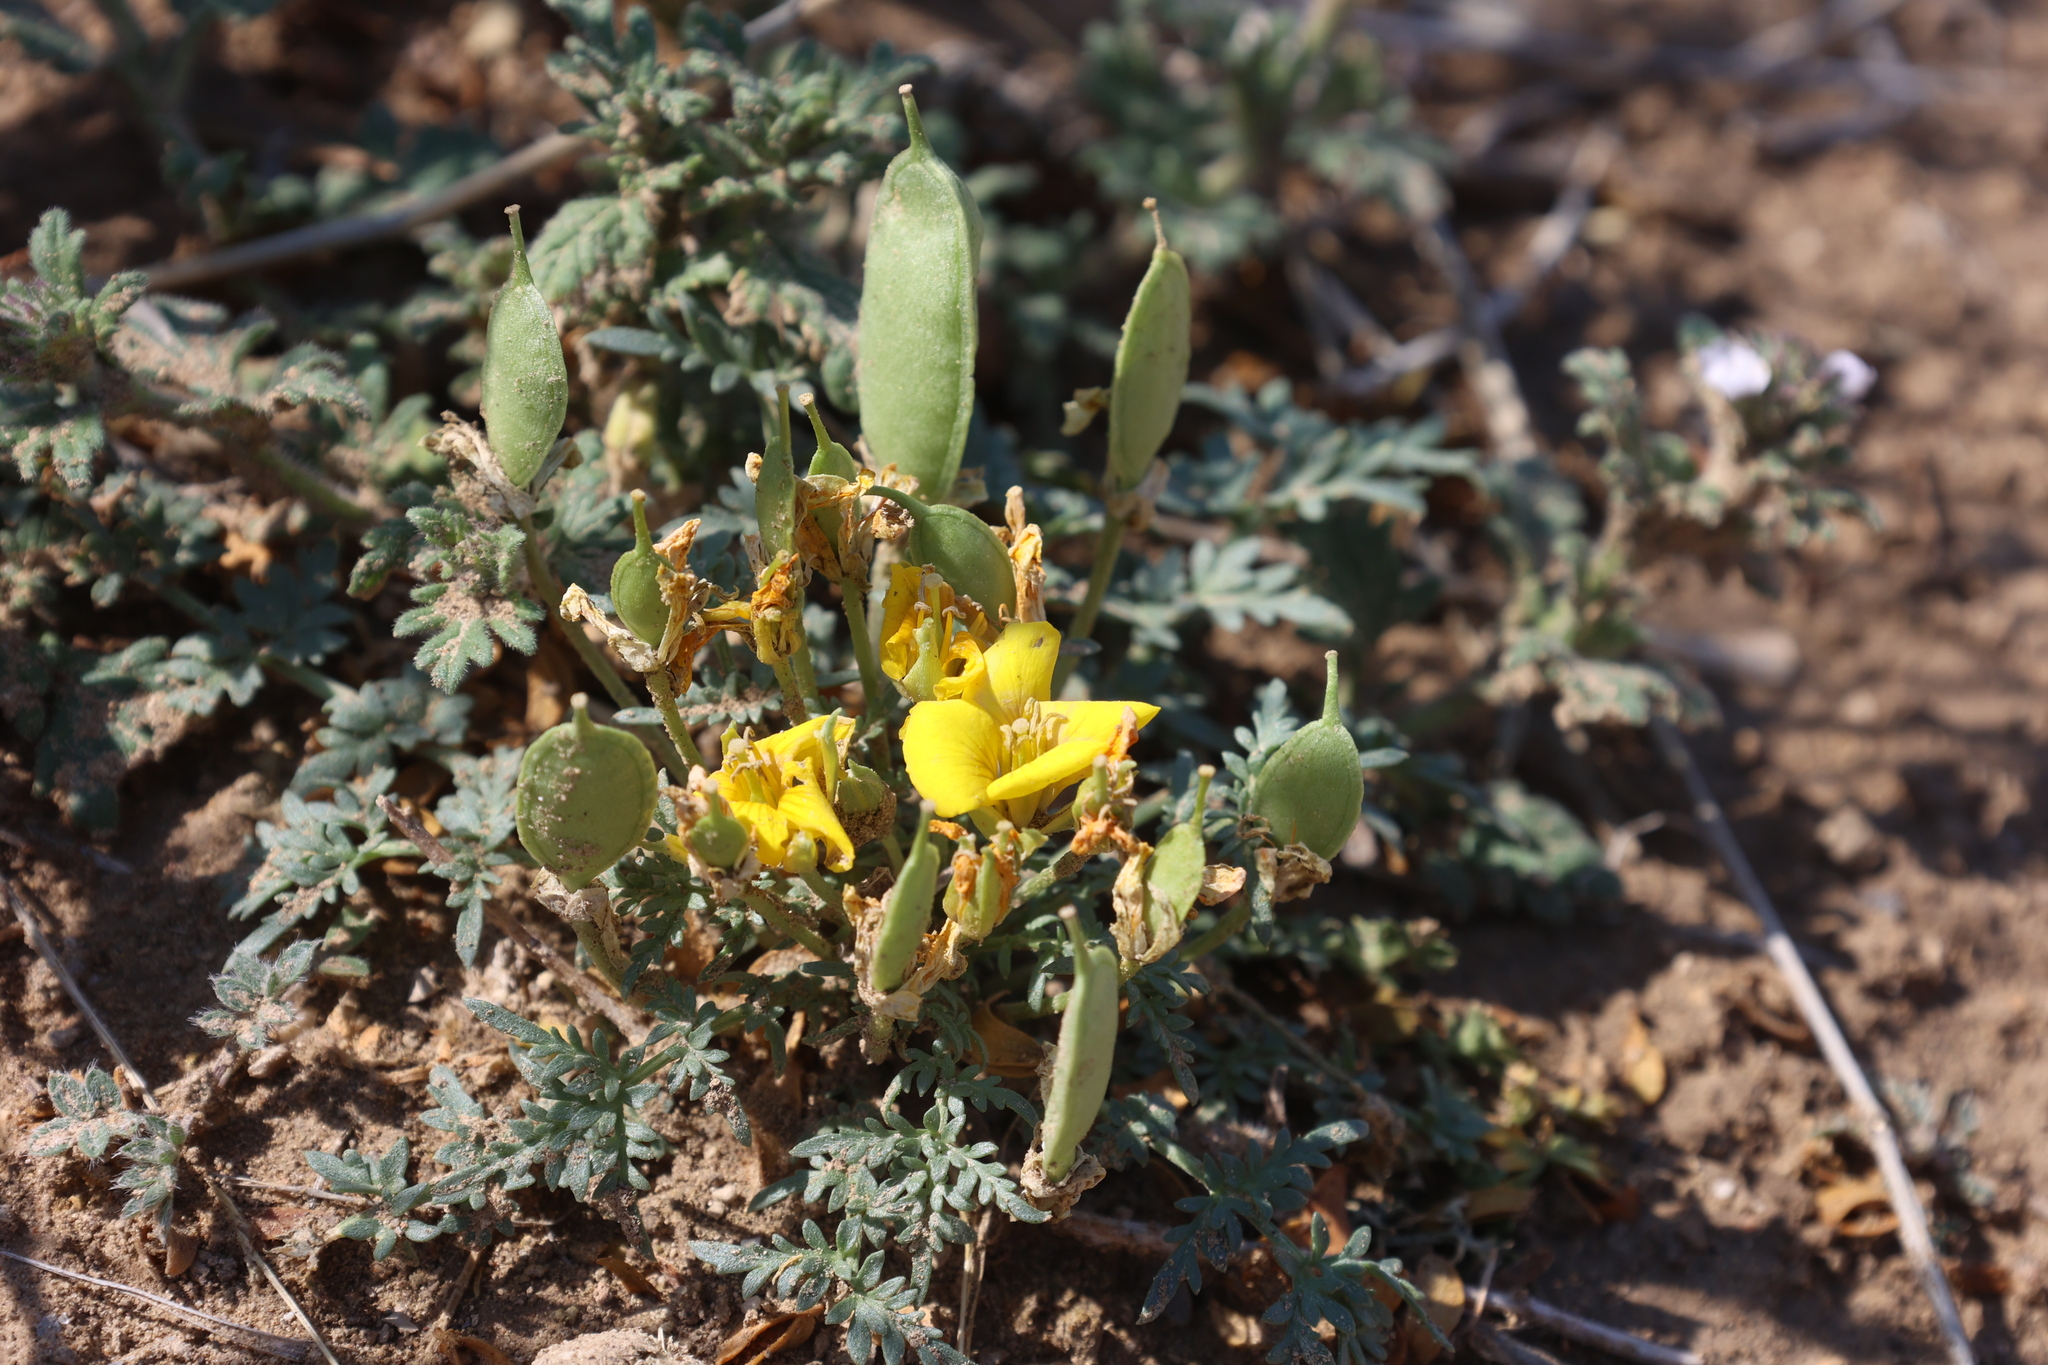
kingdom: Plantae
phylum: Tracheophyta
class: Magnoliopsida
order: Brassicales
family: Brassicaceae
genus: Selenia
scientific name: Selenia dissecta
